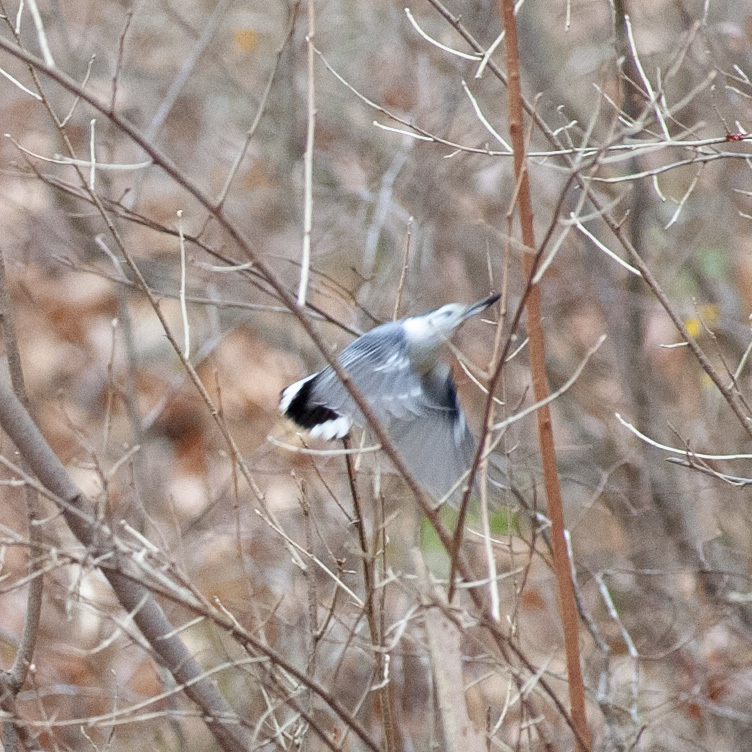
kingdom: Animalia
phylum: Chordata
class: Aves
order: Passeriformes
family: Sittidae
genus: Sitta
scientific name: Sitta carolinensis
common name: White-breasted nuthatch
